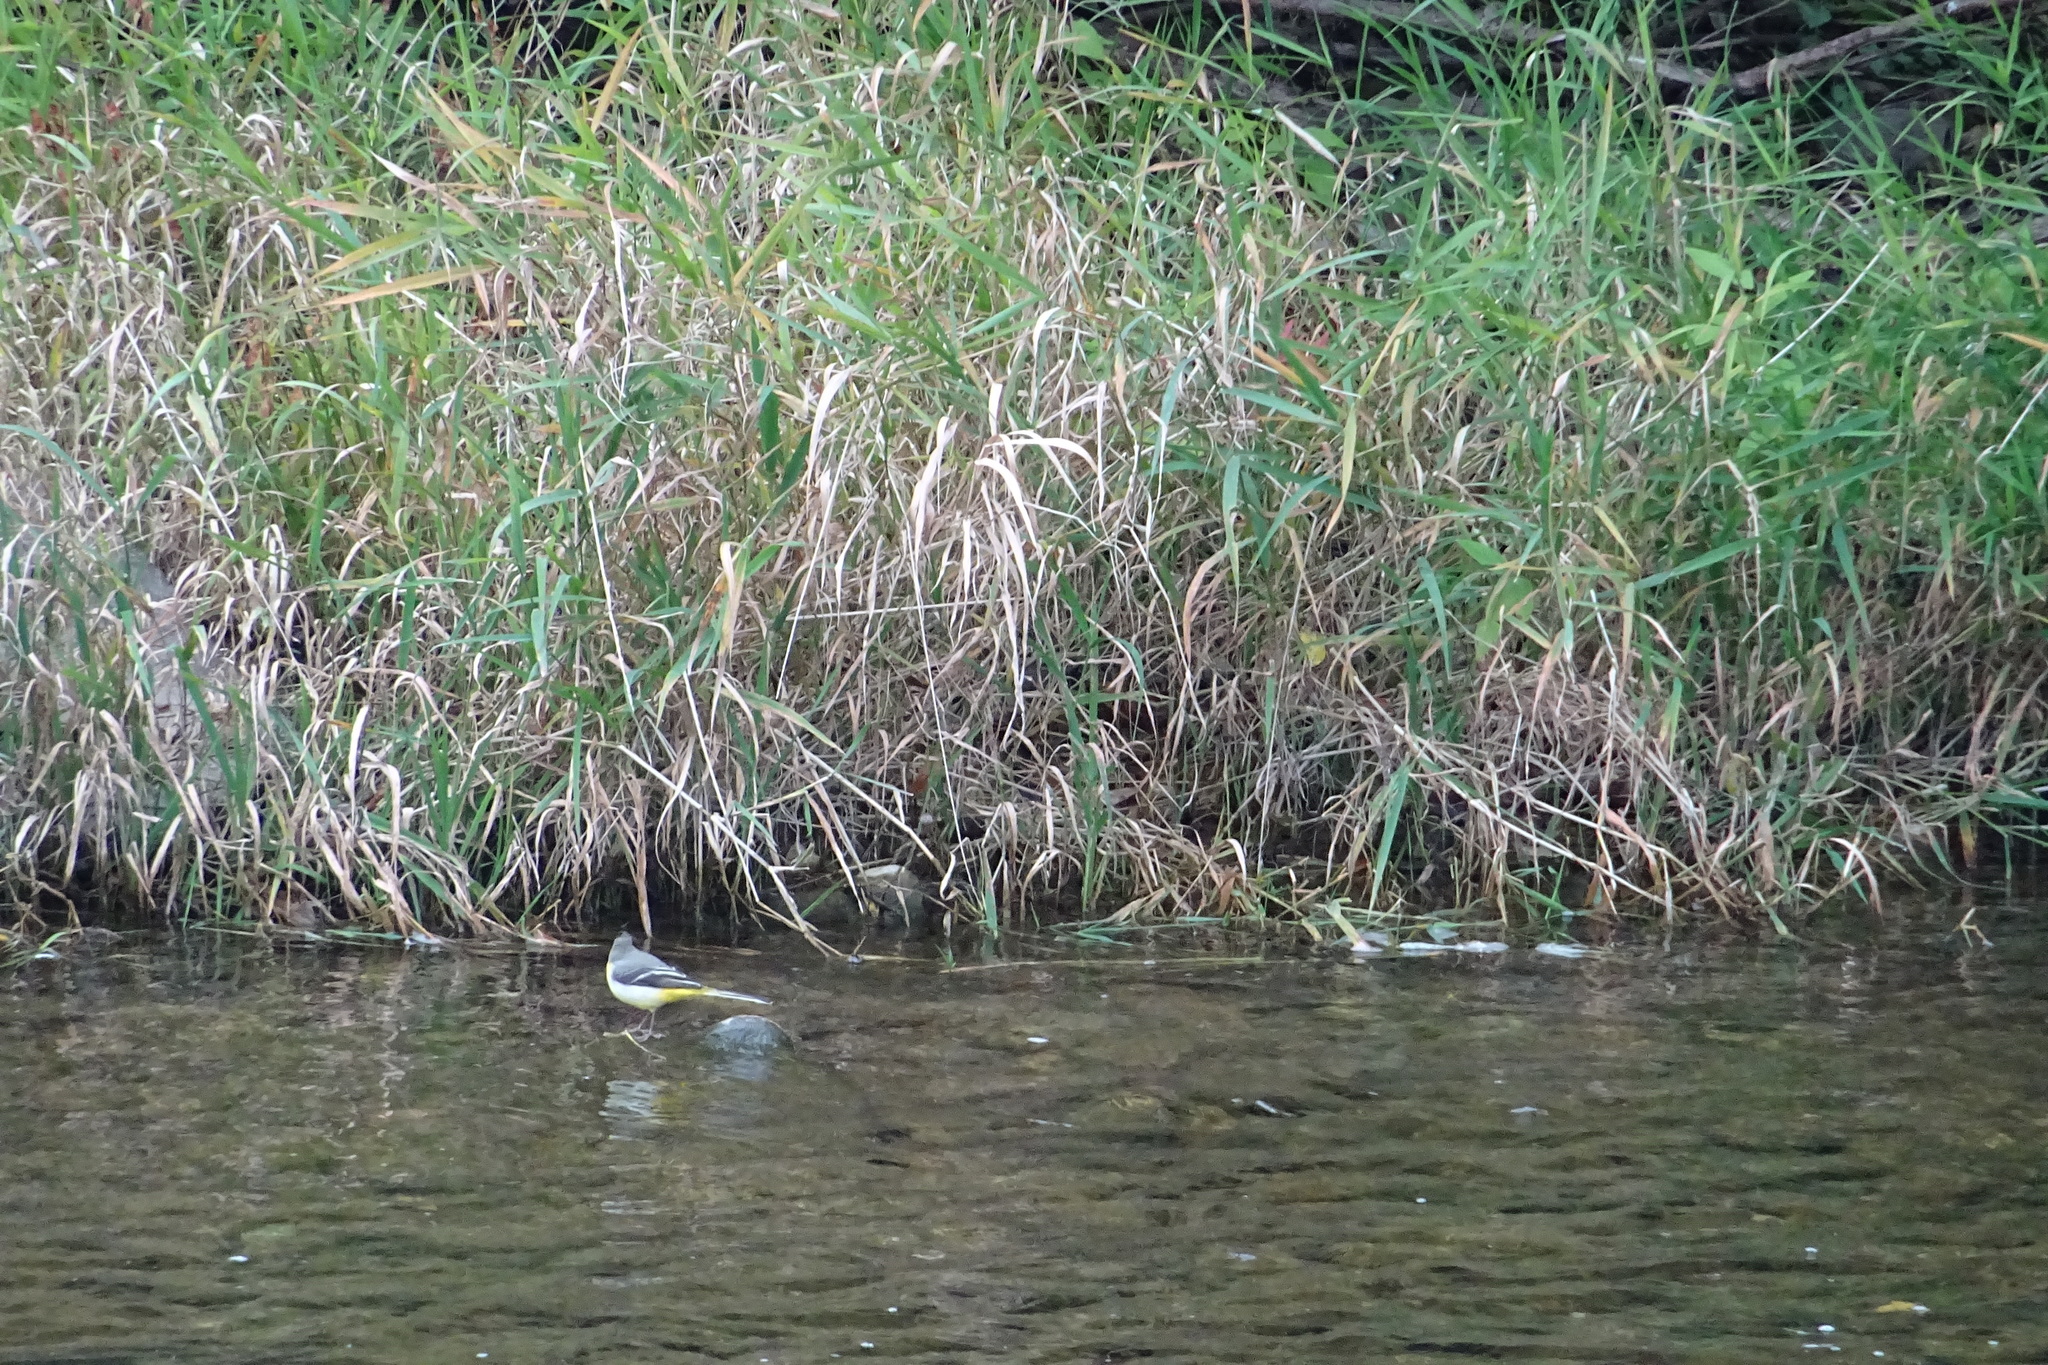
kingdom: Animalia
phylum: Chordata
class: Aves
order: Passeriformes
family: Motacillidae
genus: Motacilla
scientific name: Motacilla cinerea
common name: Grey wagtail
